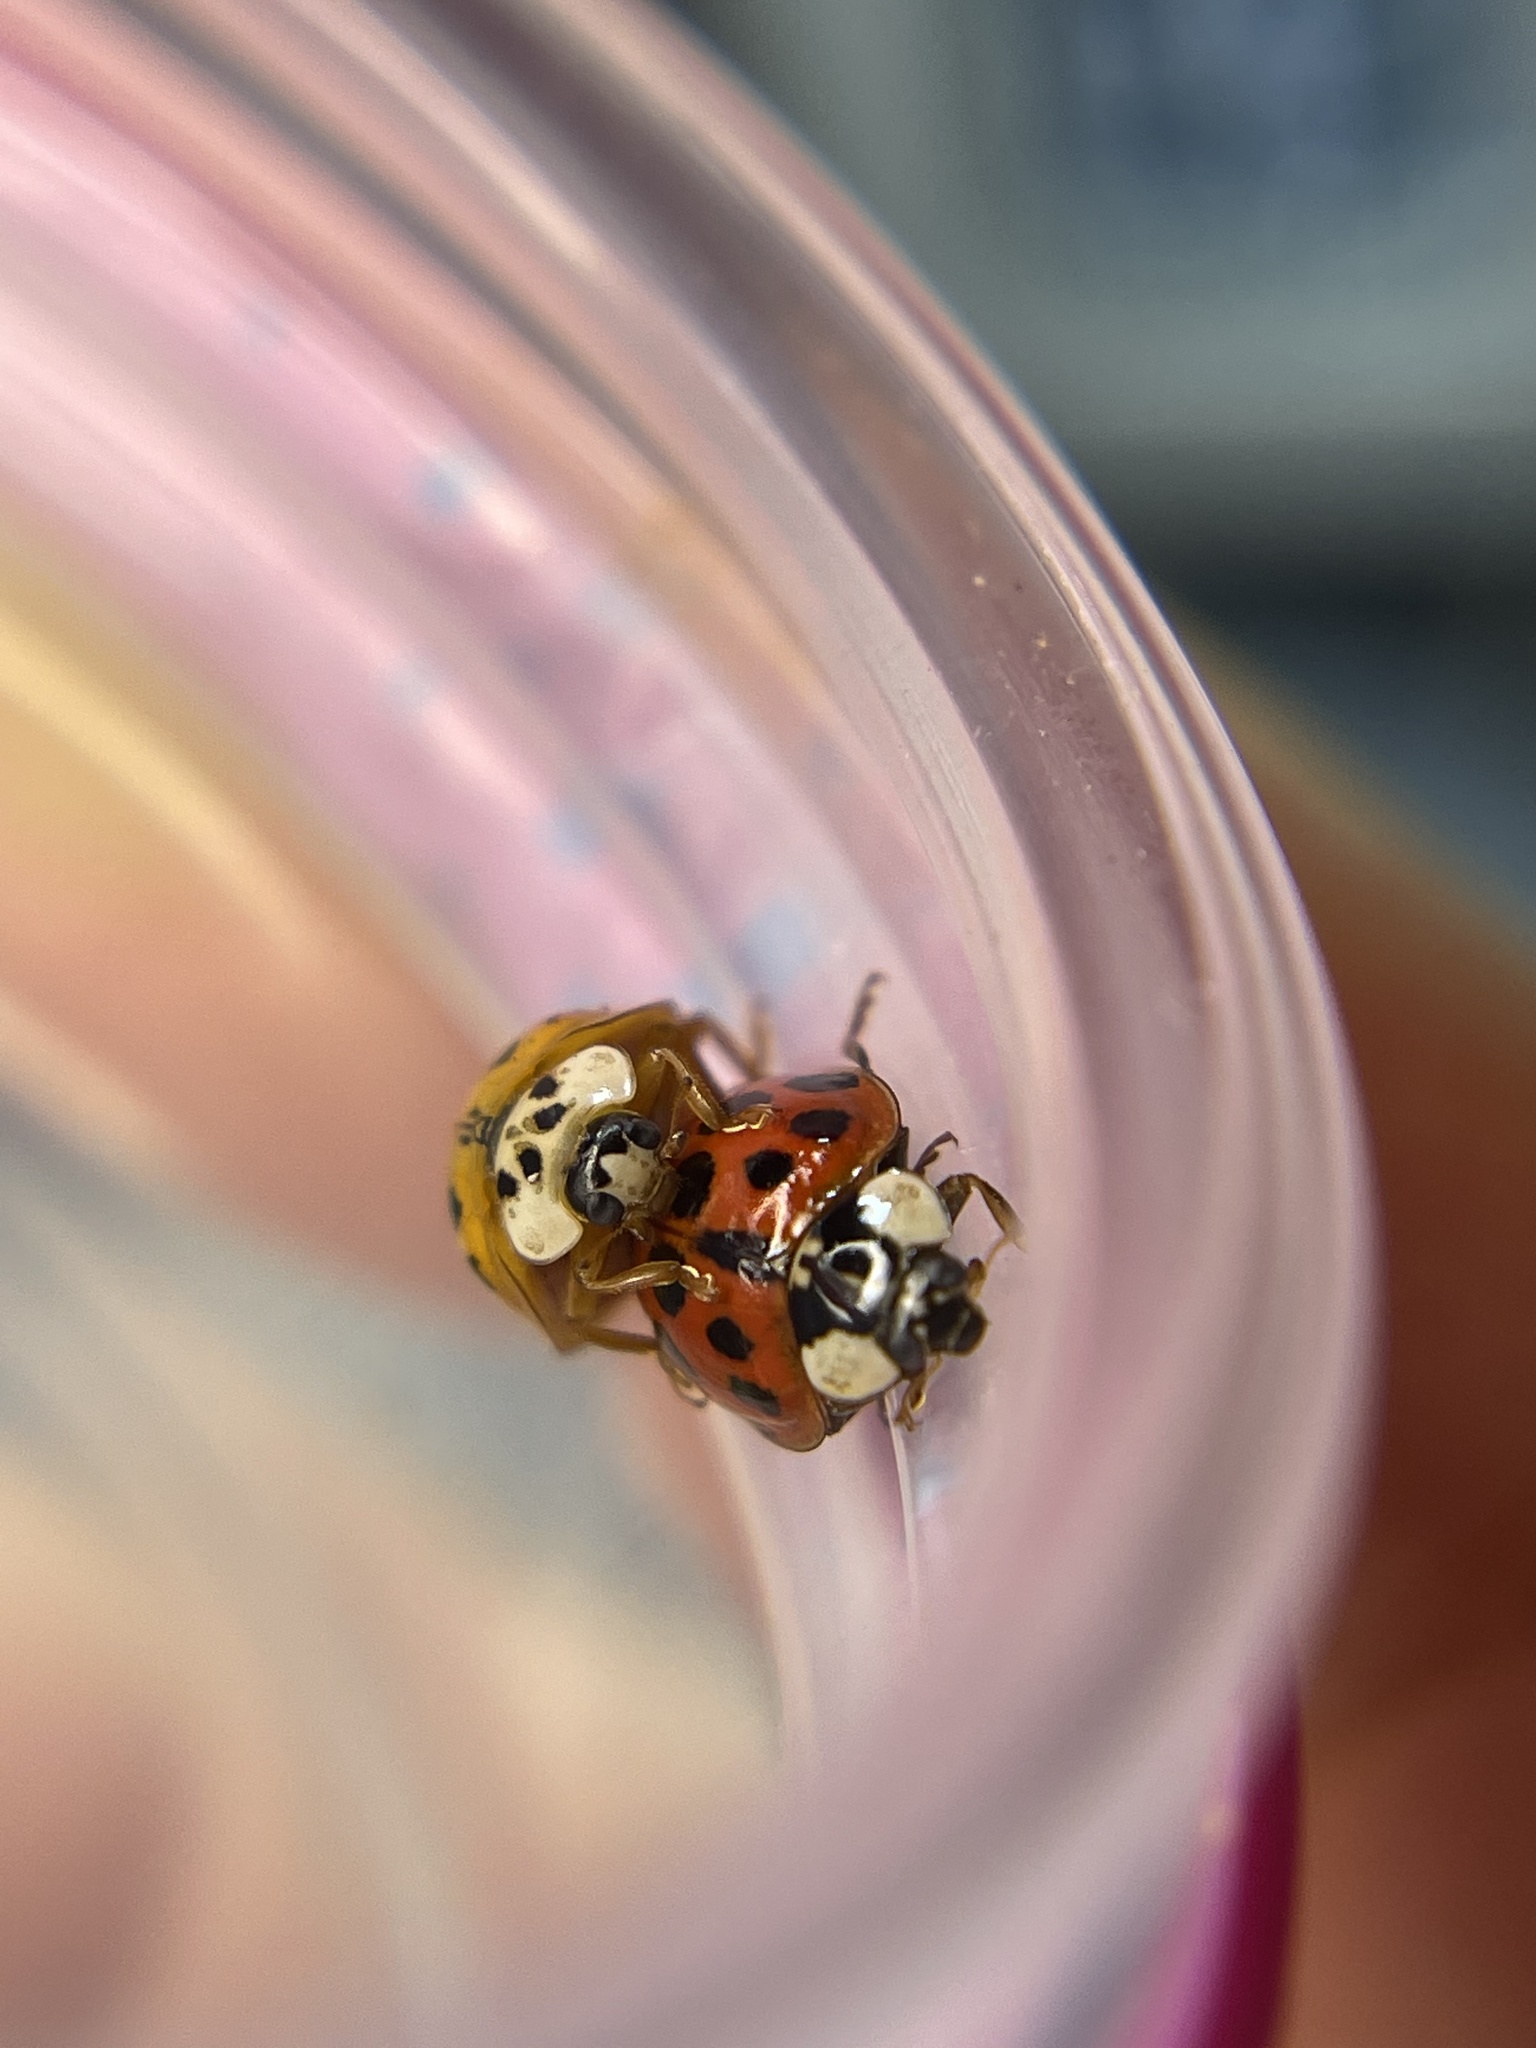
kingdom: Animalia
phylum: Arthropoda
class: Insecta
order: Coleoptera
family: Coccinellidae
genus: Harmonia
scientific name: Harmonia axyridis
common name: Harlequin ladybird
